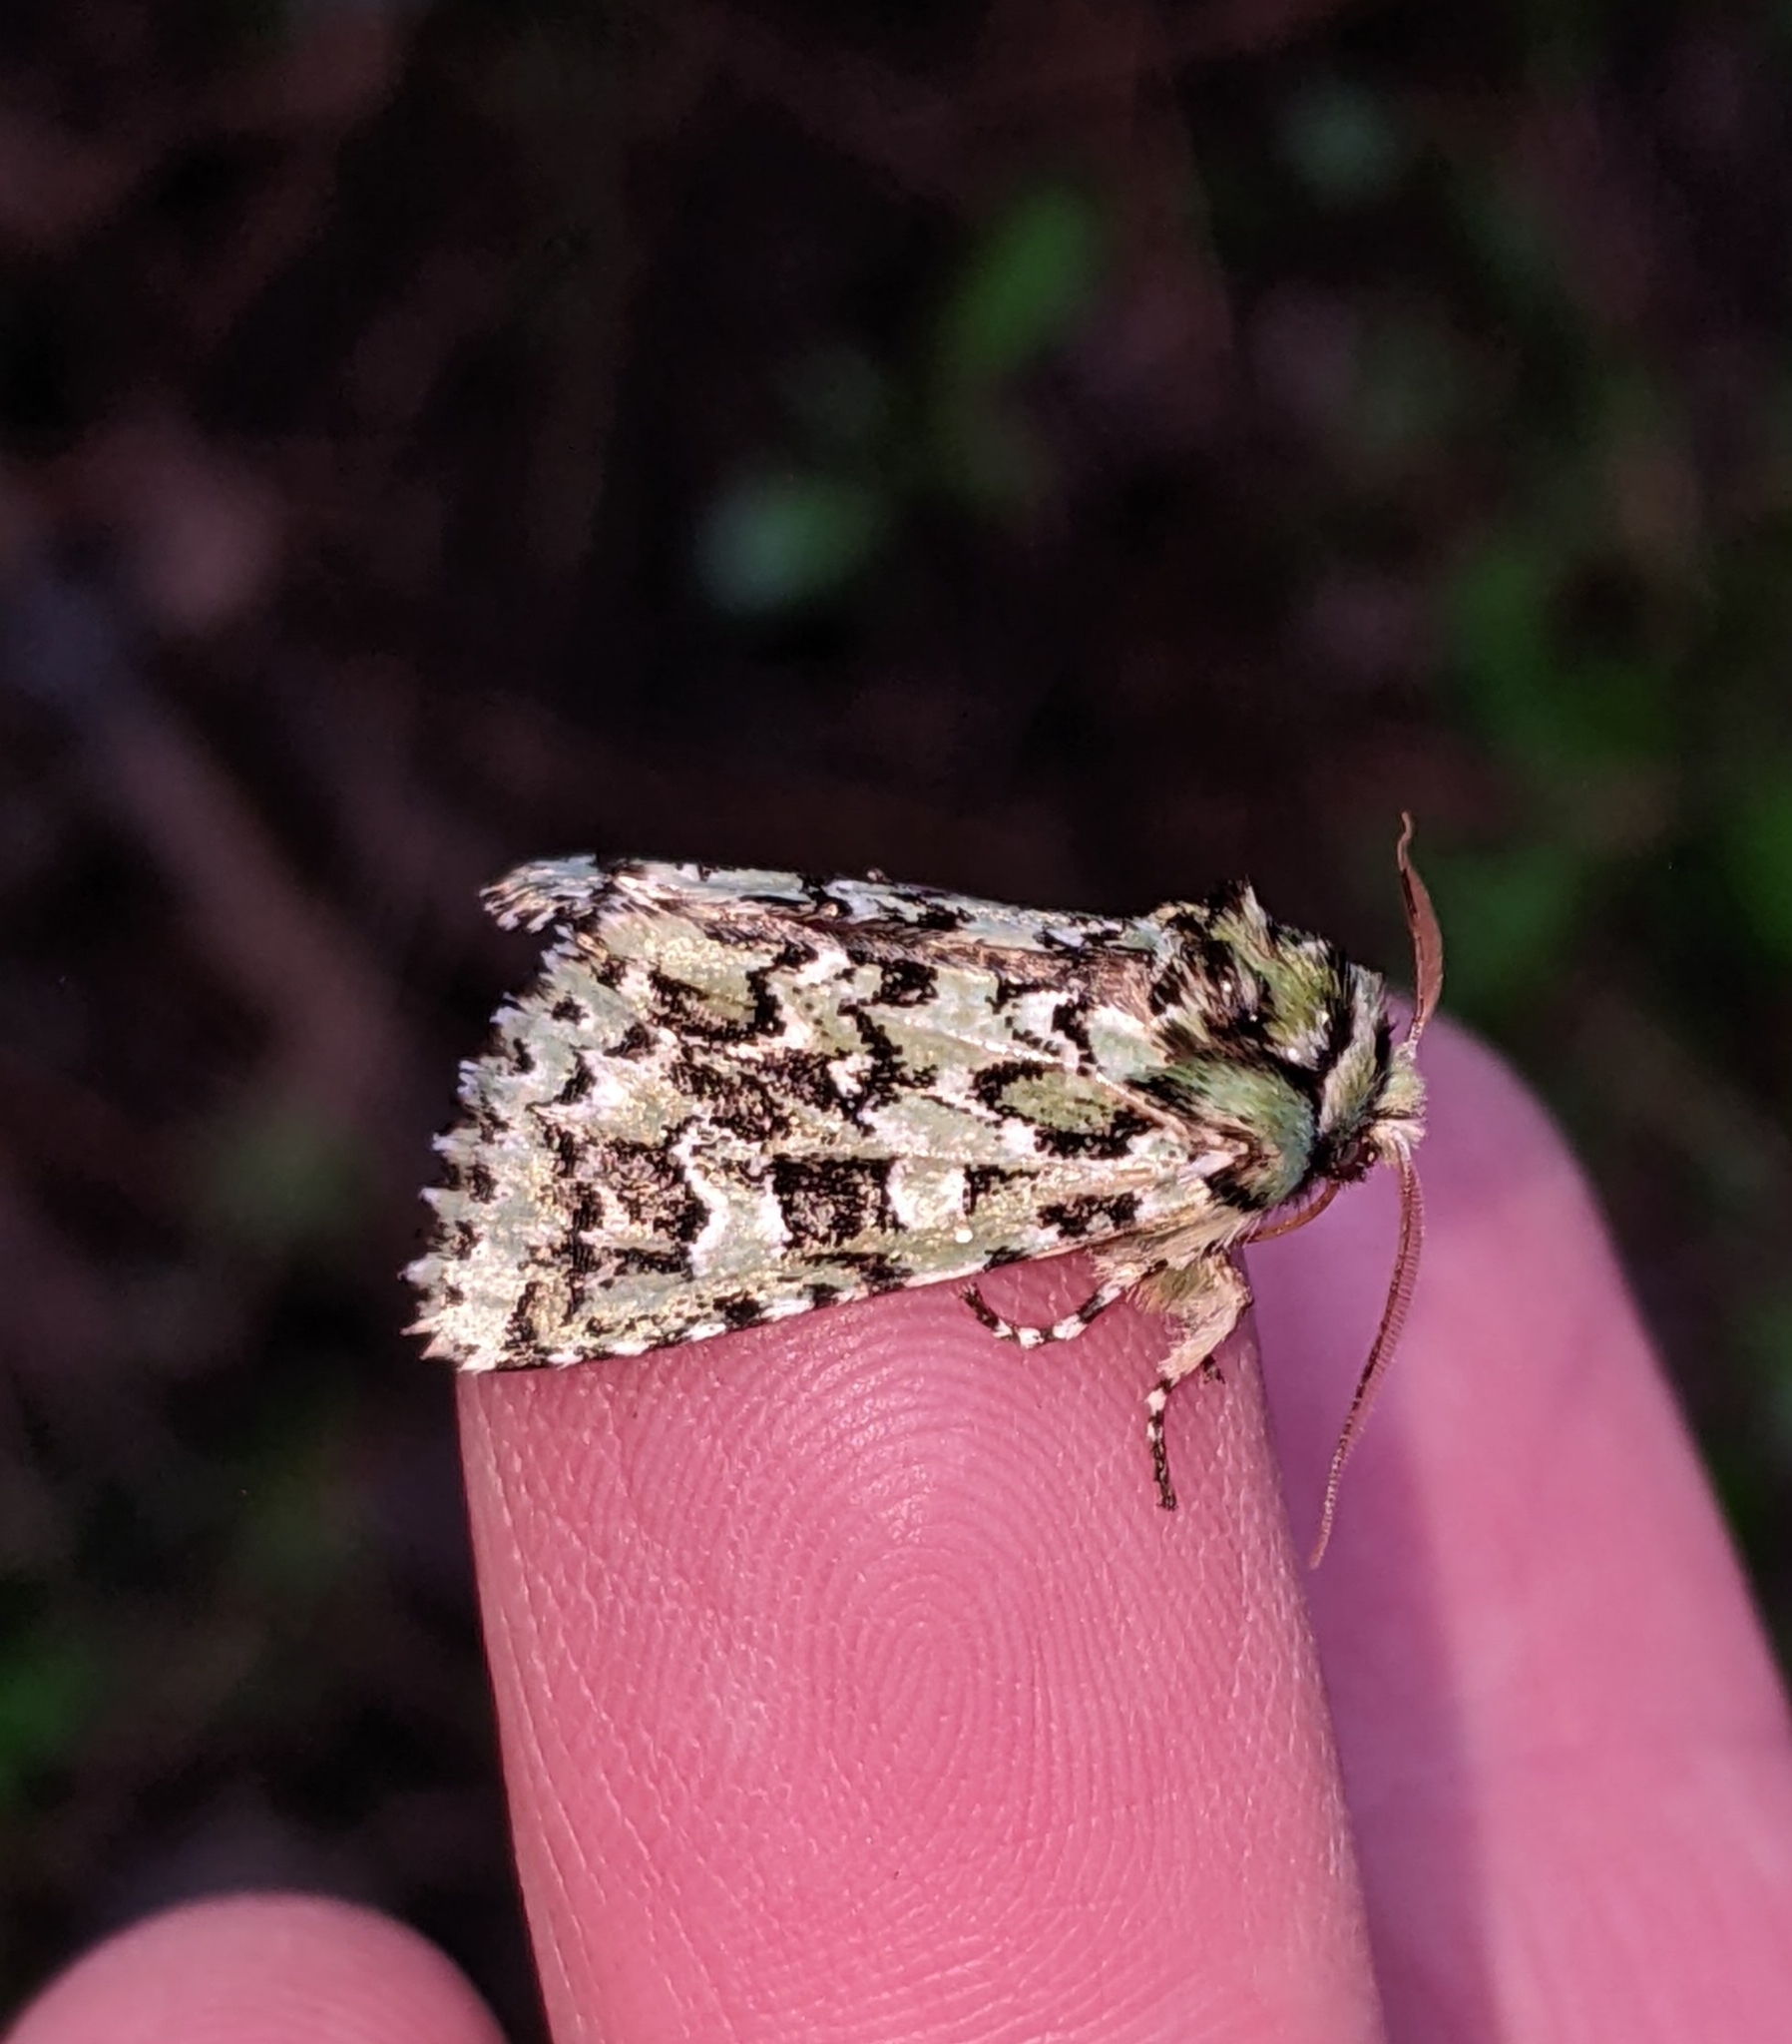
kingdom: Animalia
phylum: Arthropoda
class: Insecta
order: Lepidoptera
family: Noctuidae
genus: Feralia
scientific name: Feralia comstocki
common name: Comstock's sallow
